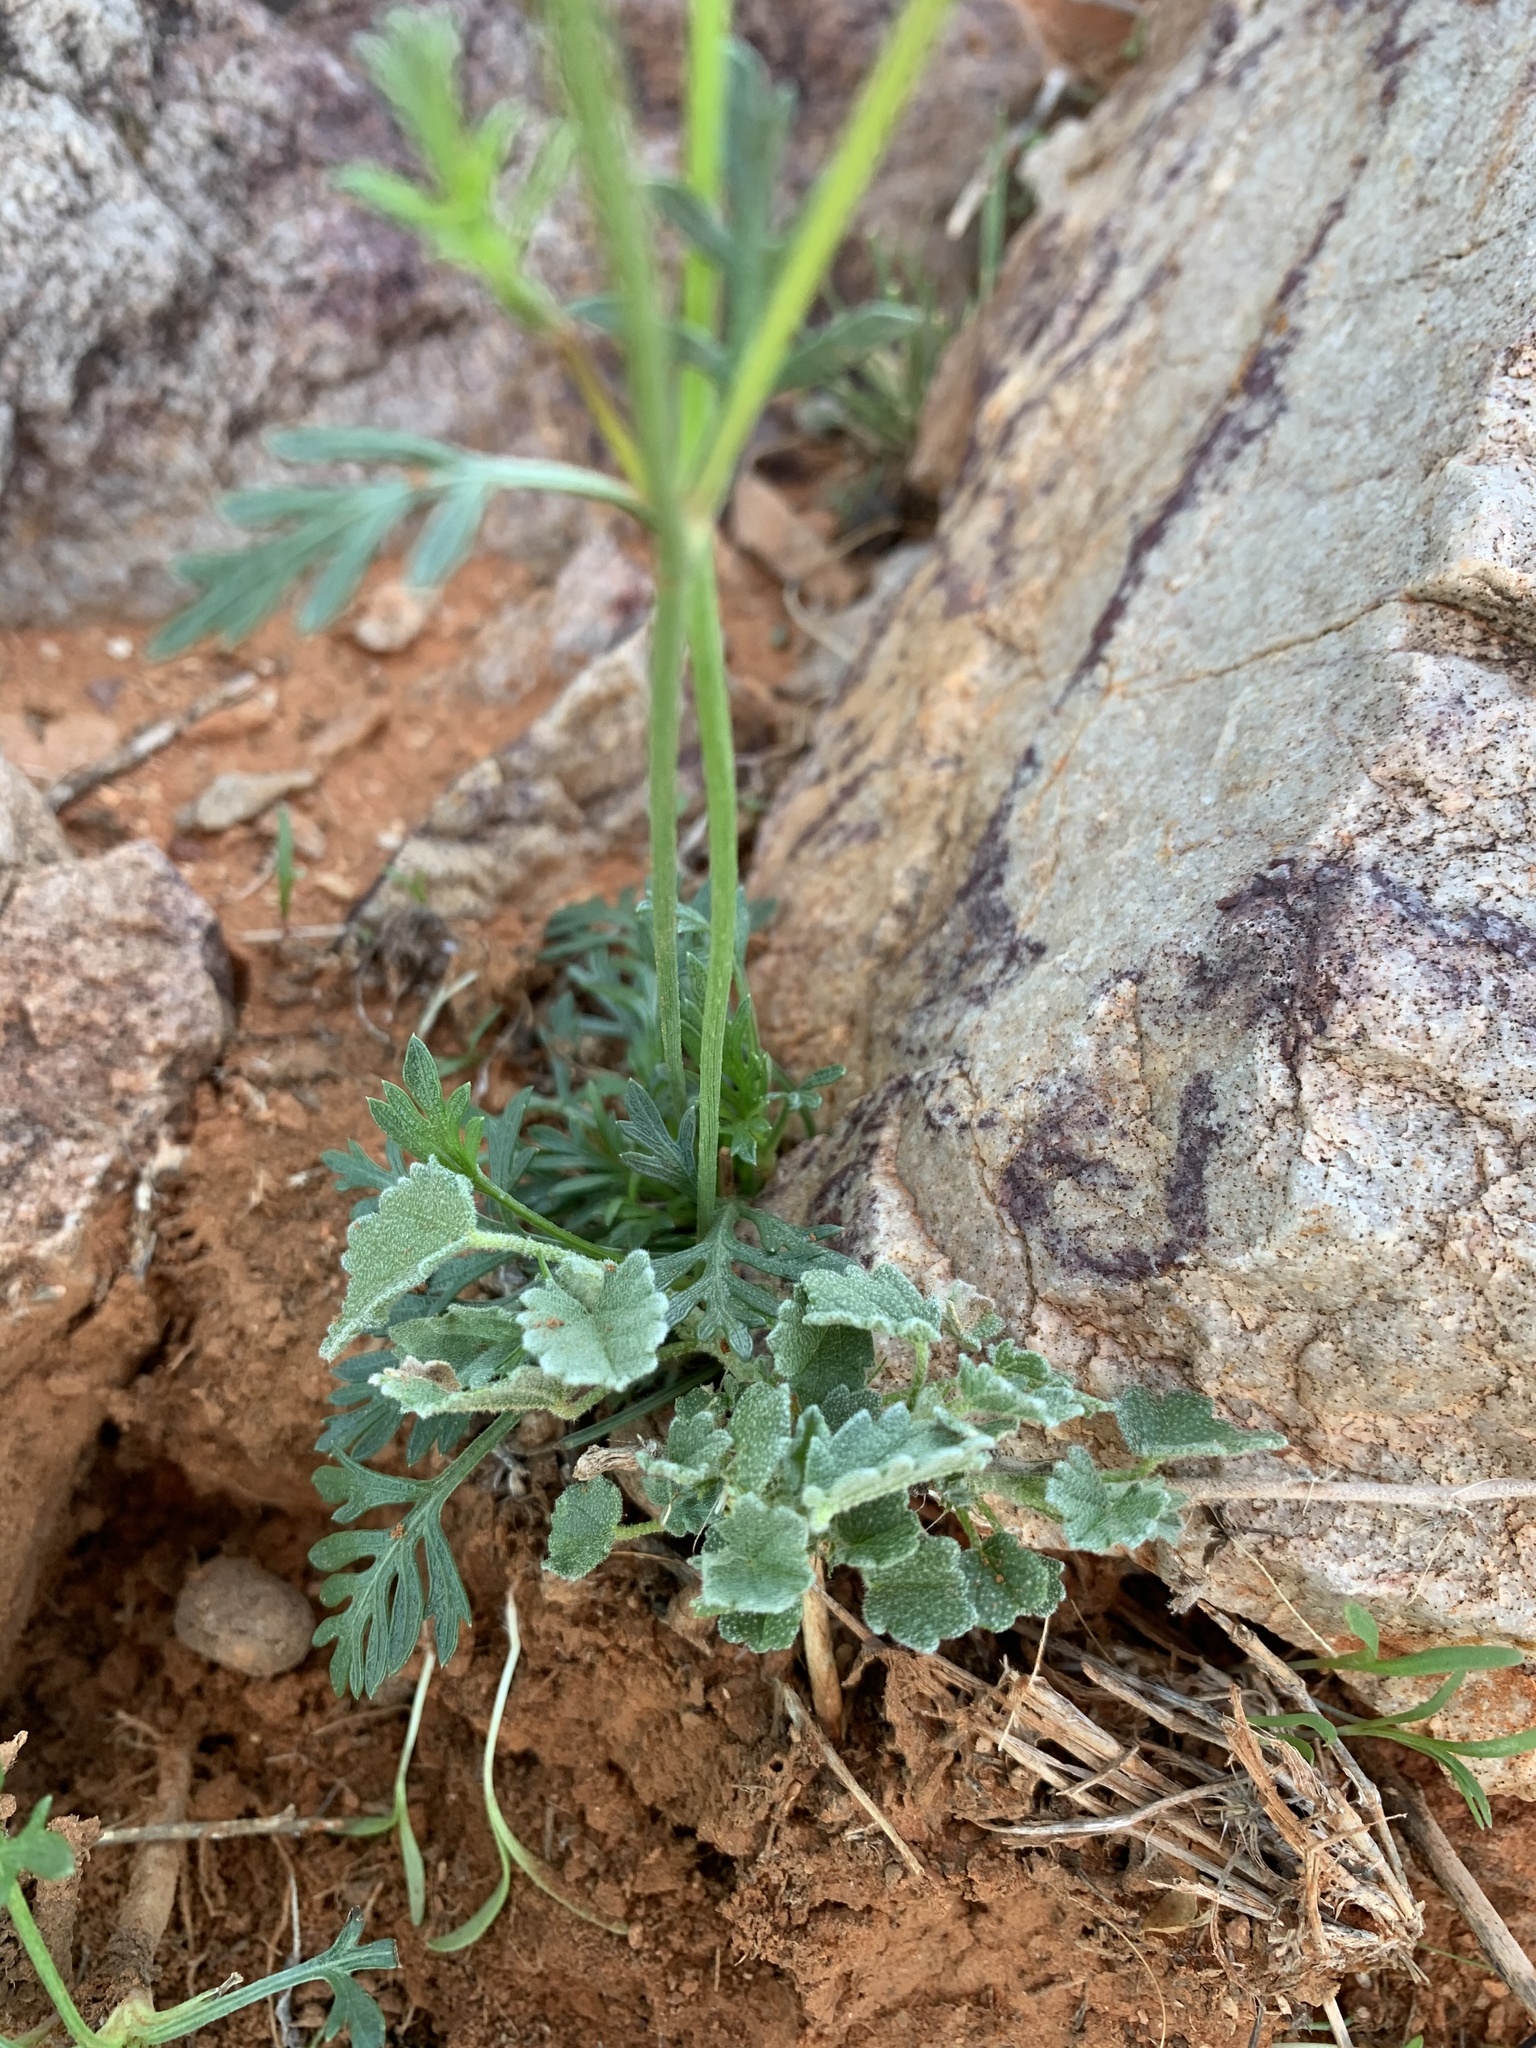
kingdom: Plantae
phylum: Tracheophyta
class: Magnoliopsida
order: Asterales
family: Asteraceae
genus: Glossocardia
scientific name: Glossocardia bidens
